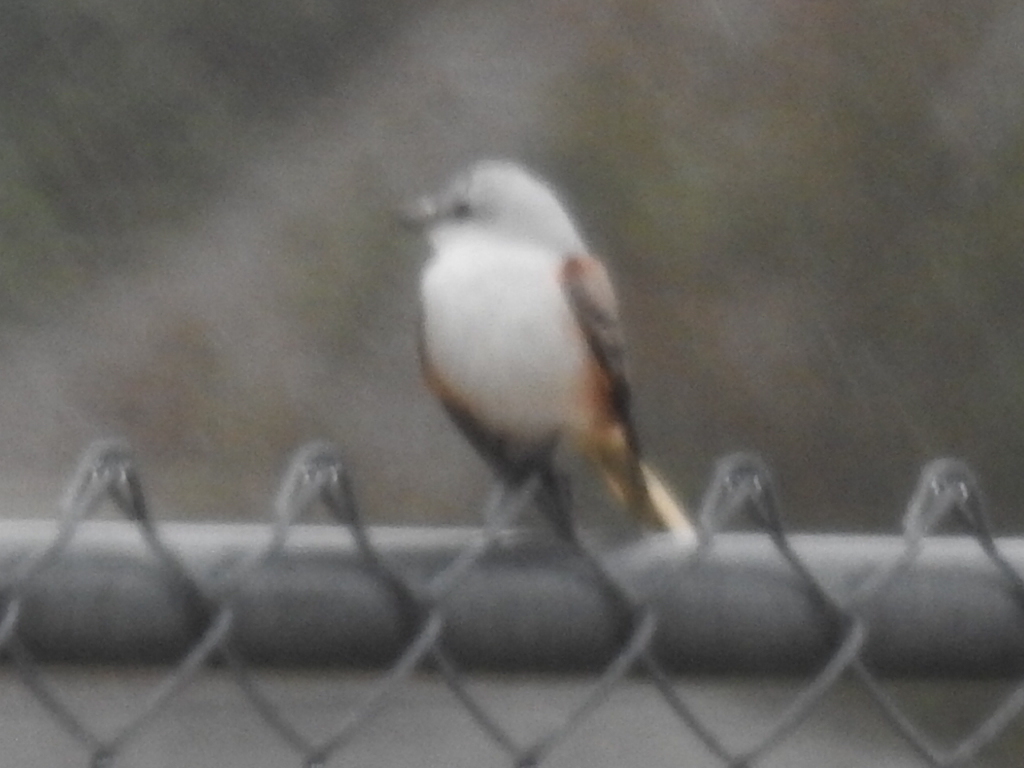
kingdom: Animalia
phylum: Chordata
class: Aves
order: Passeriformes
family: Tyrannidae
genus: Tyrannus
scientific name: Tyrannus forficatus
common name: Scissor-tailed flycatcher
